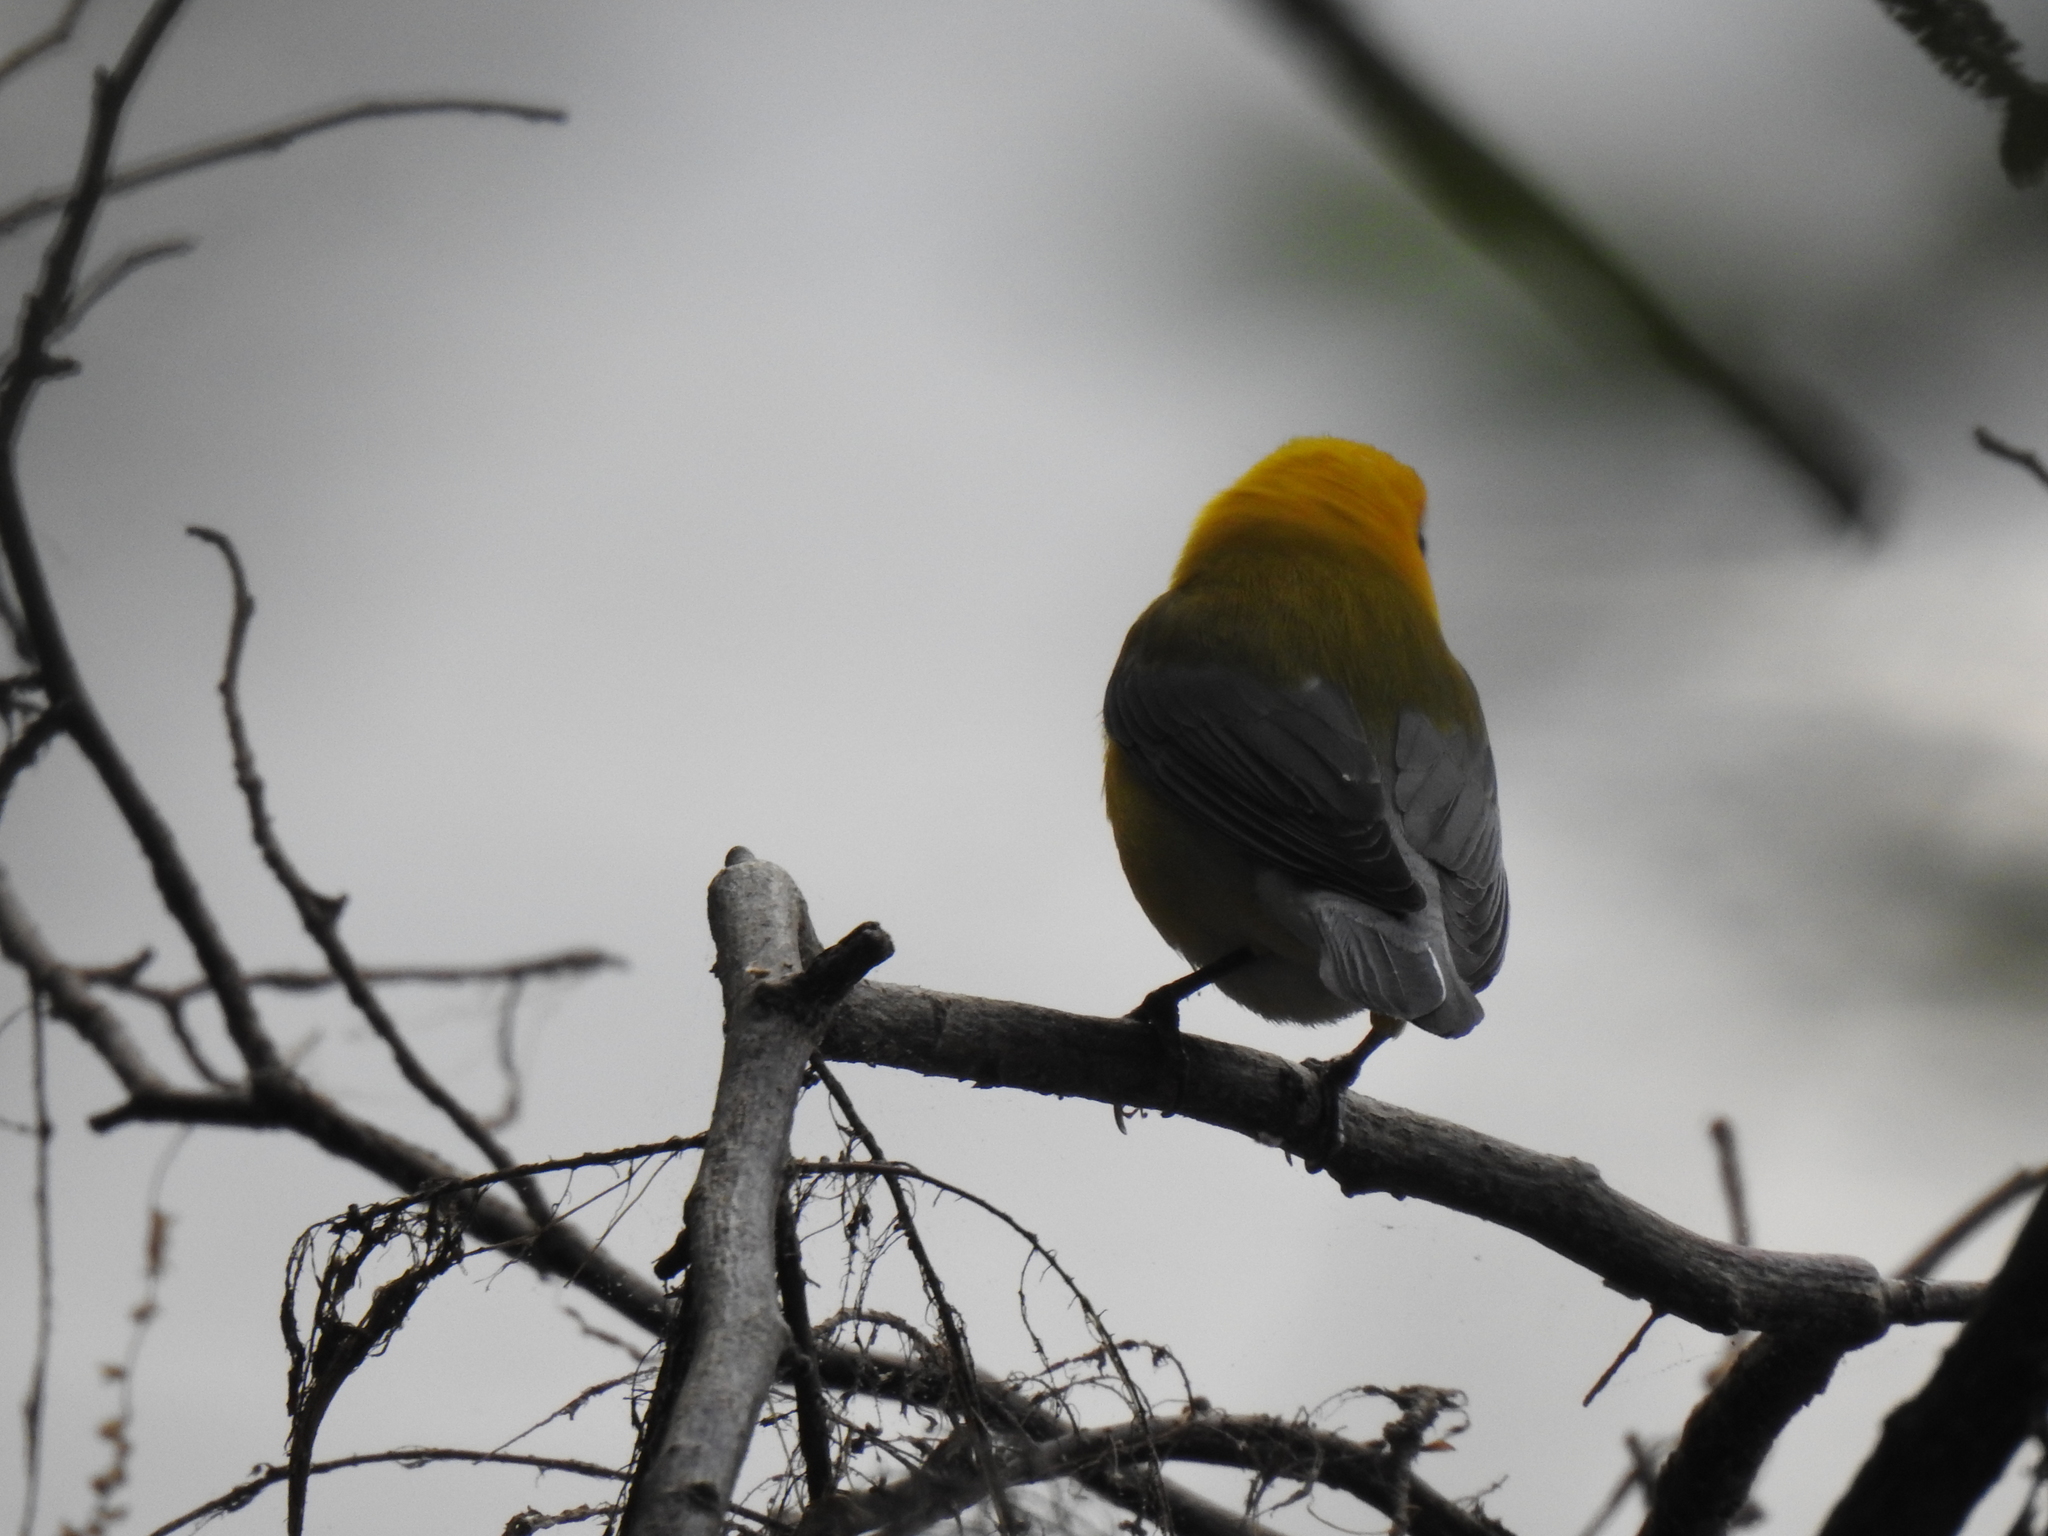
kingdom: Animalia
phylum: Chordata
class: Aves
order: Passeriformes
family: Parulidae
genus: Protonotaria
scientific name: Protonotaria citrea
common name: Prothonotary warbler
